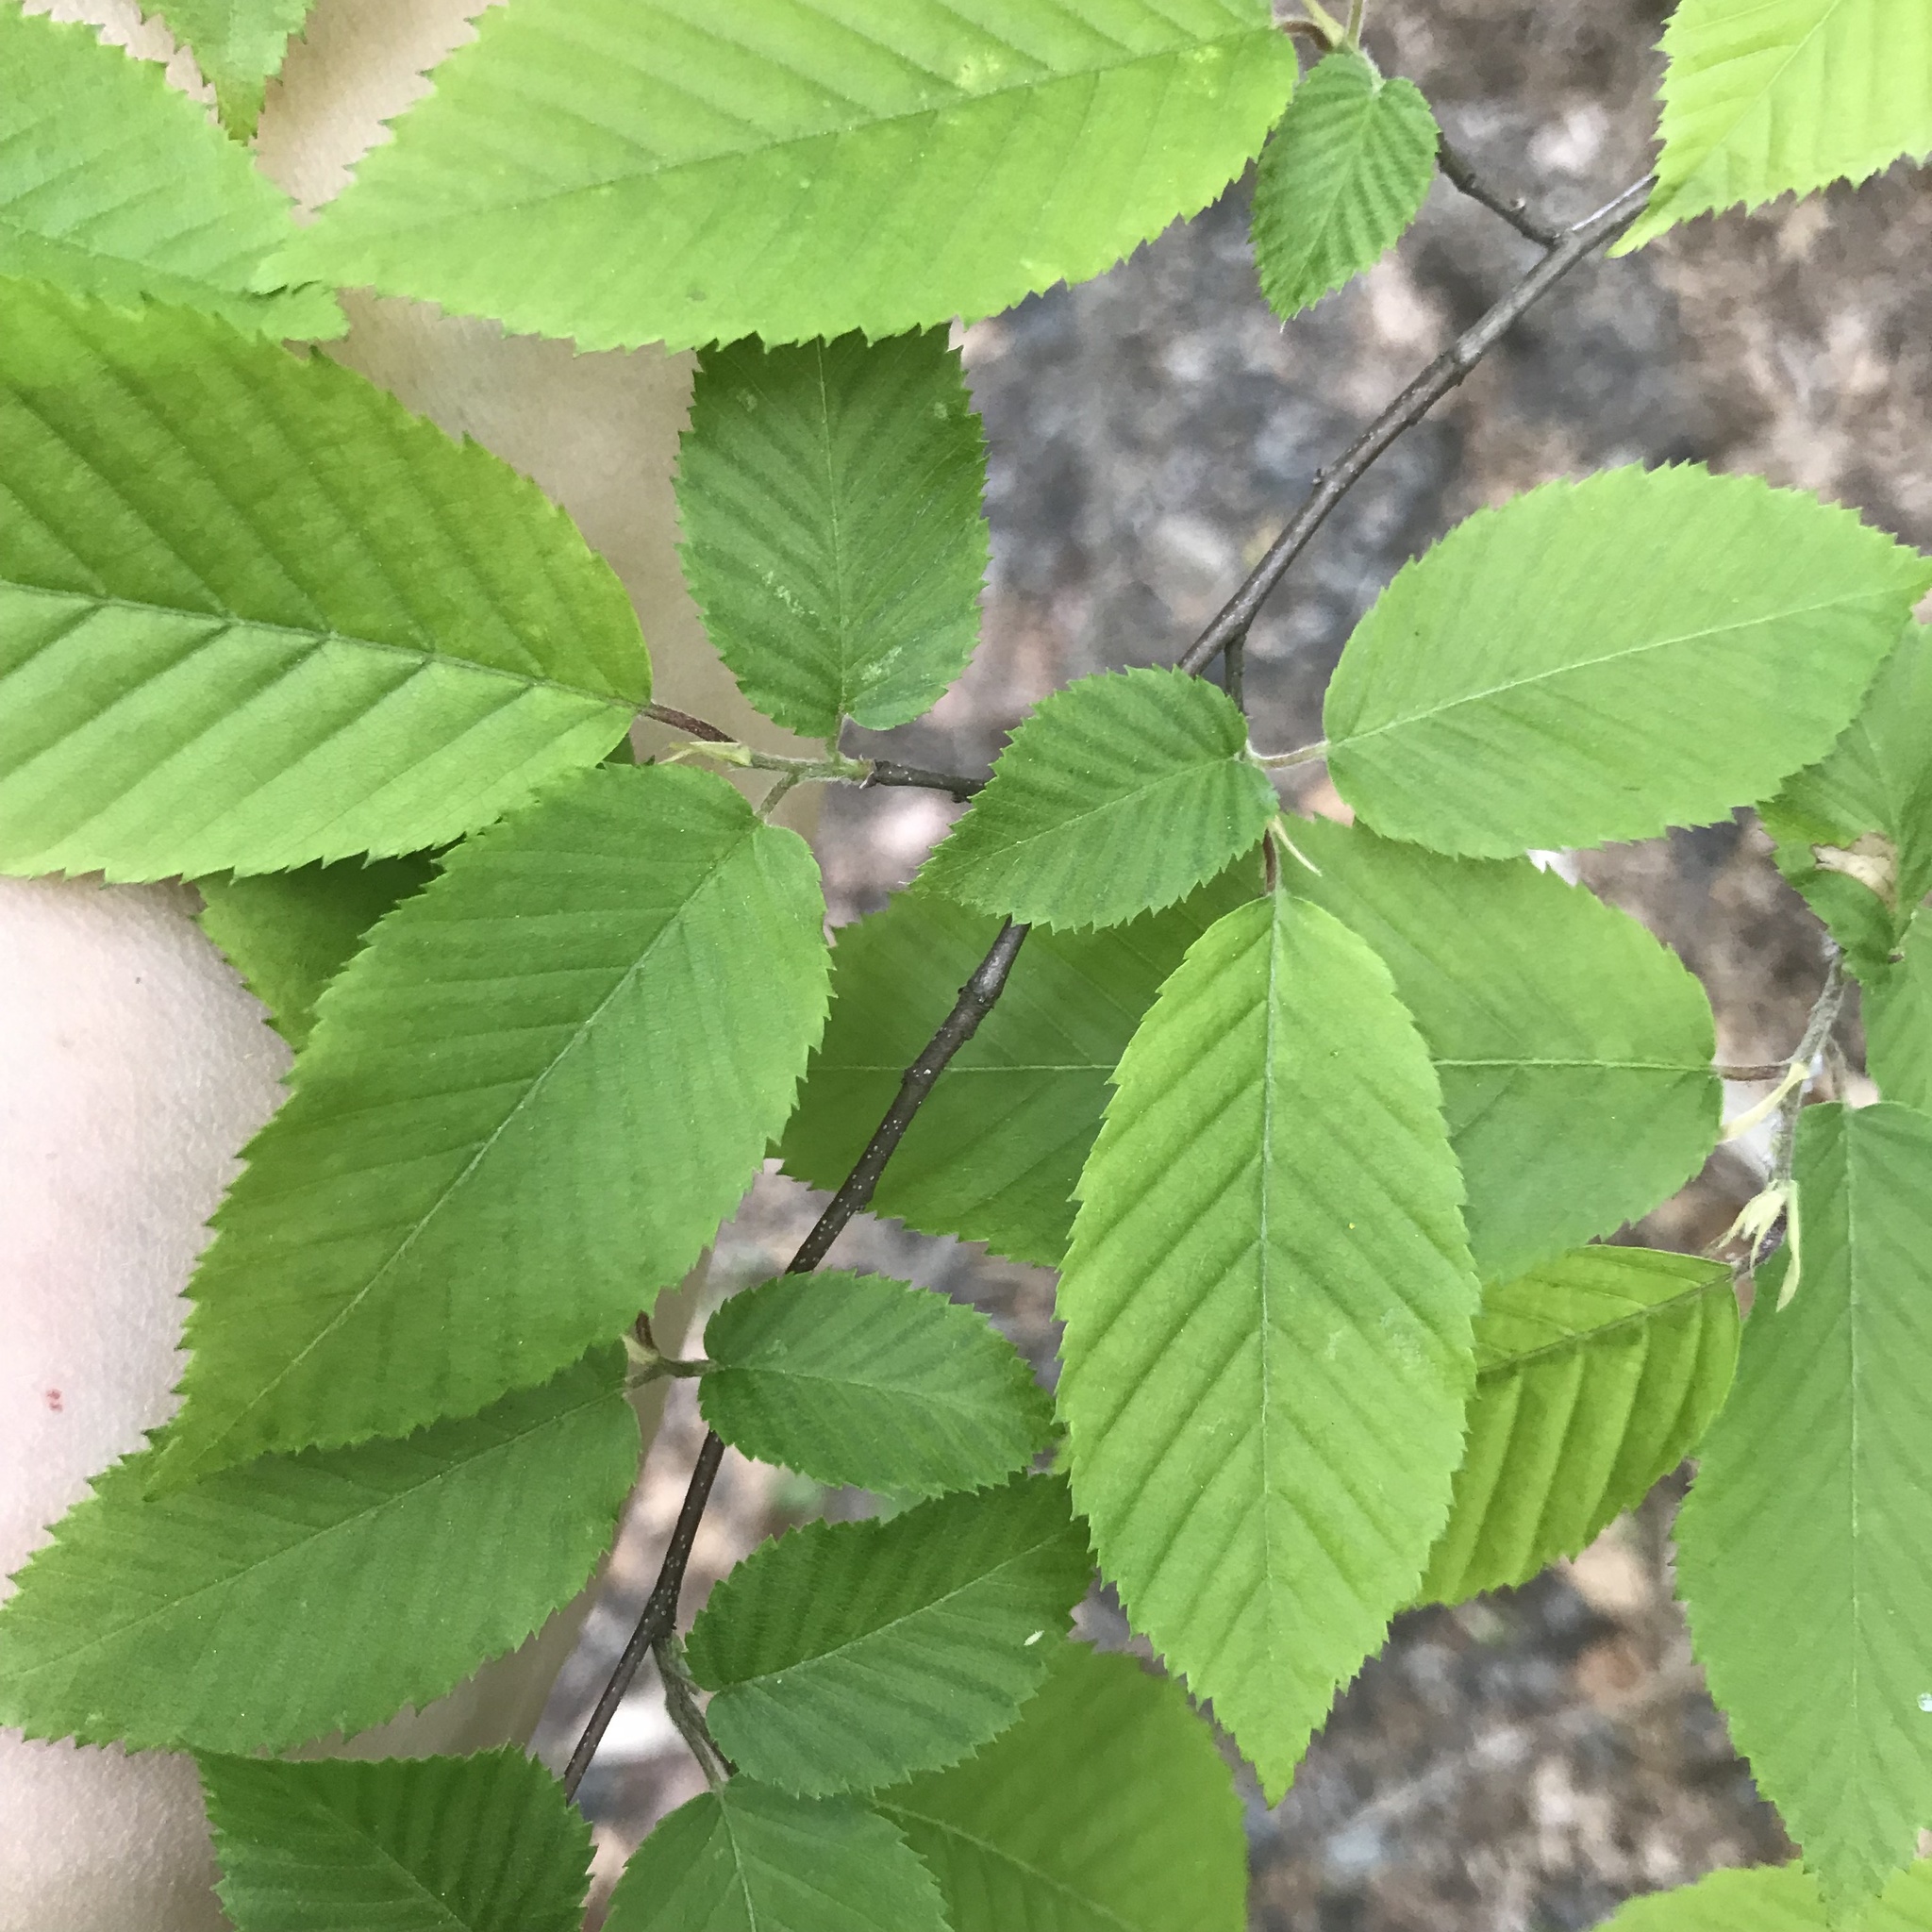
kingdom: Plantae
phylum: Tracheophyta
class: Magnoliopsida
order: Fagales
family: Betulaceae
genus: Carpinus
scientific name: Carpinus caroliniana
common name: American hornbeam
